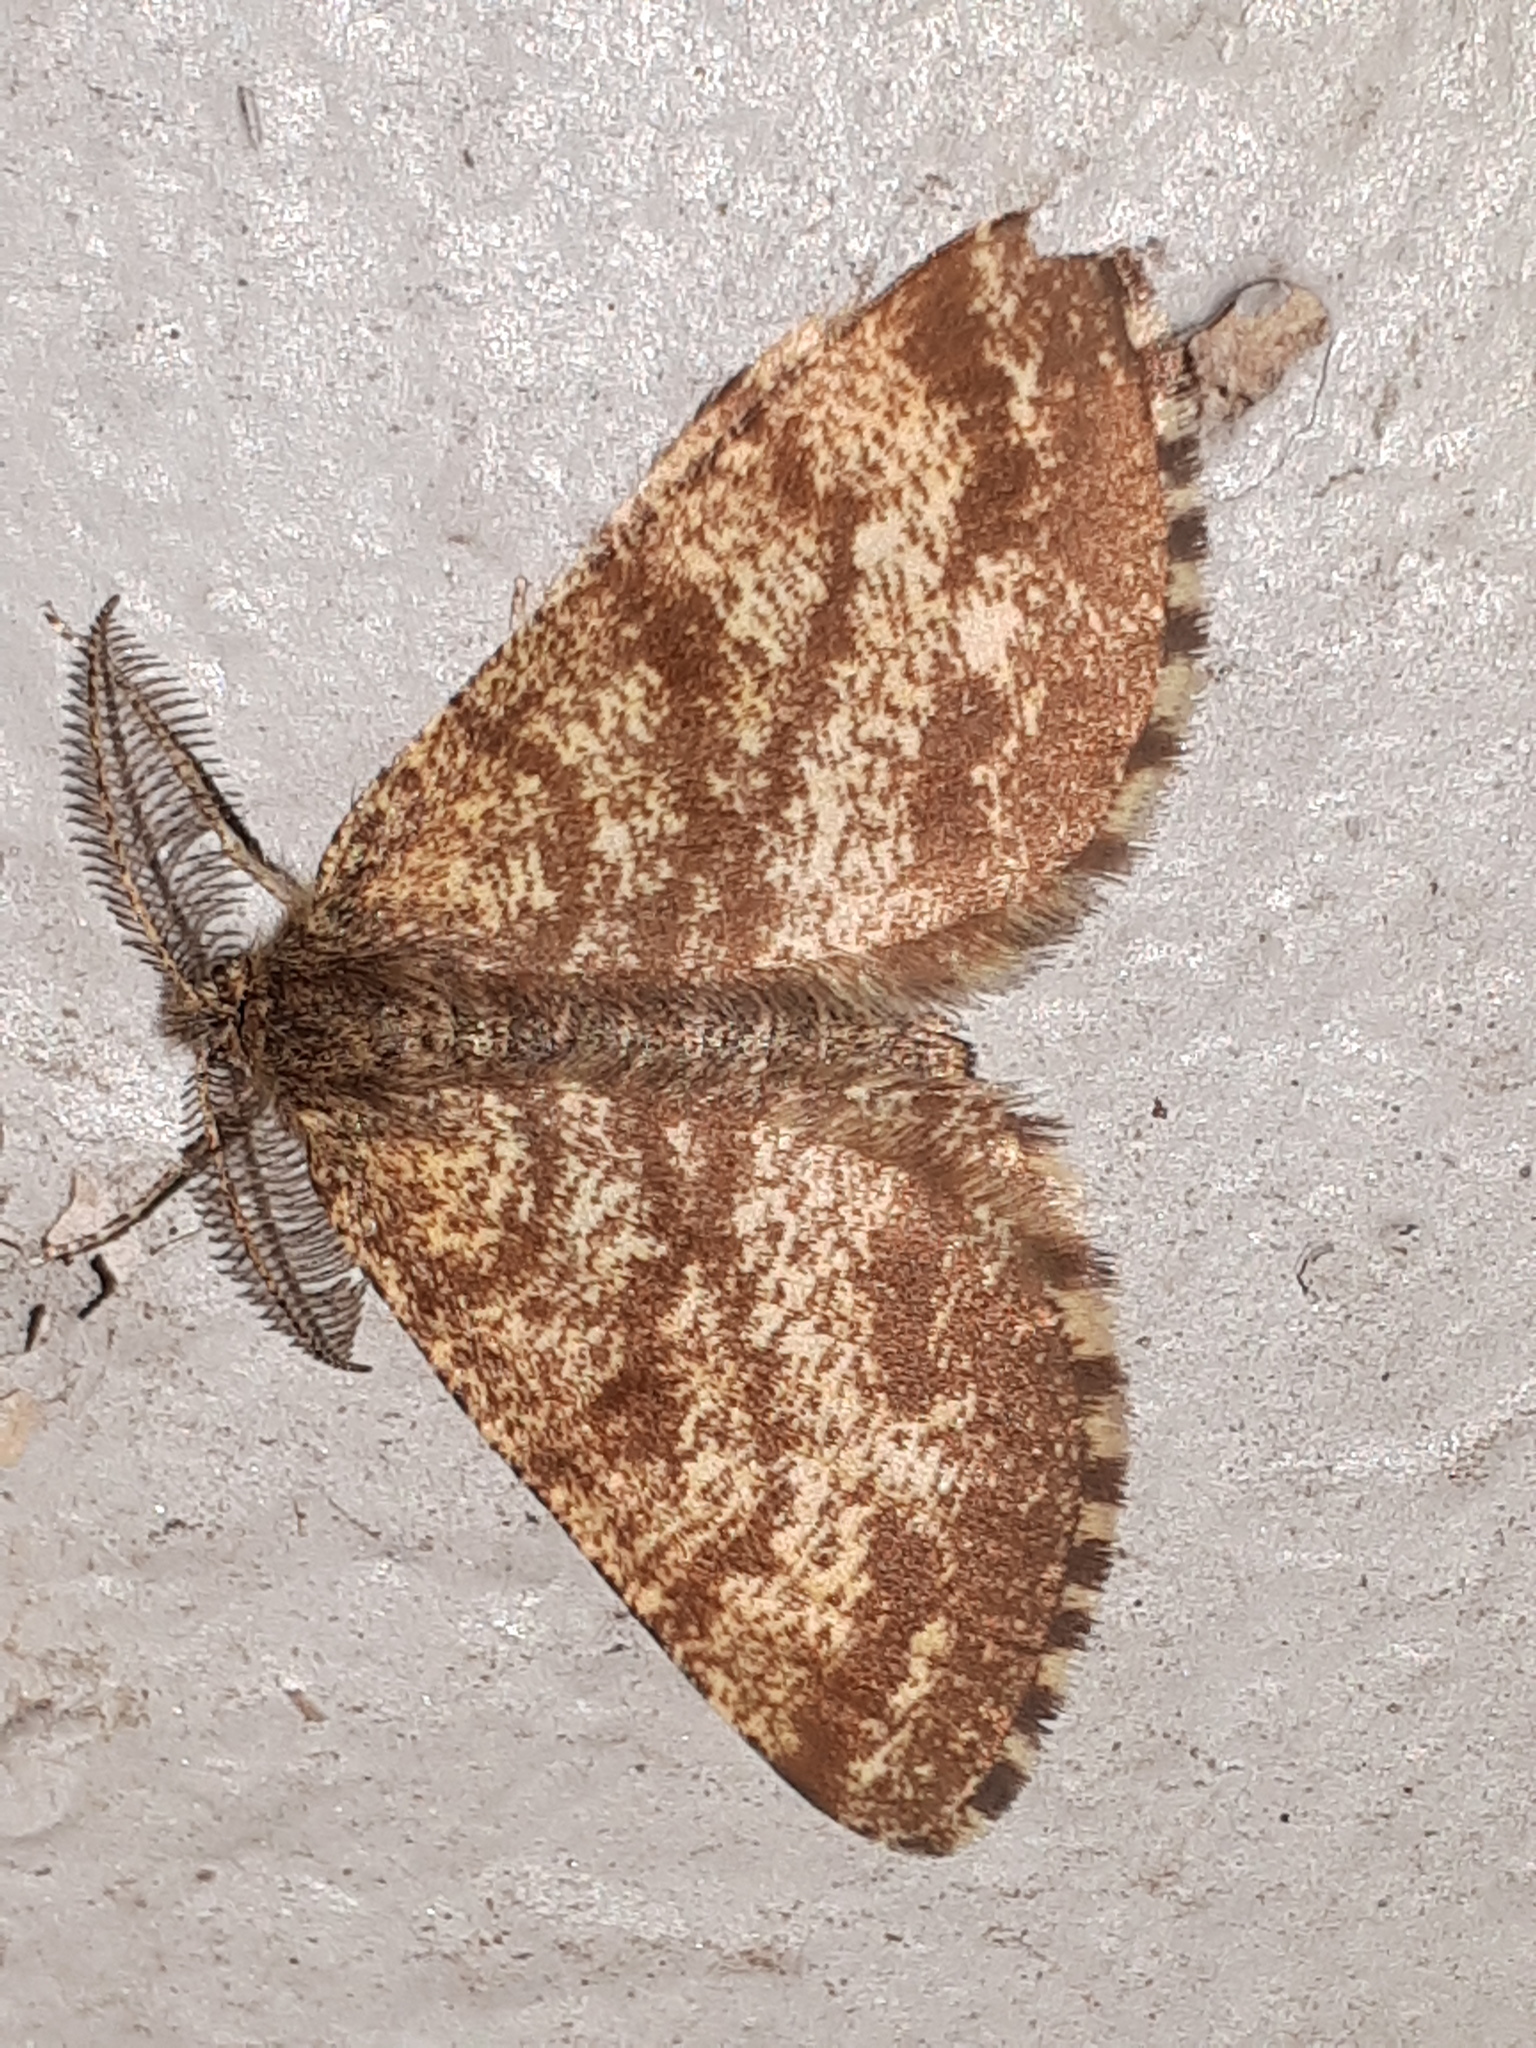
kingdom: Animalia
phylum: Arthropoda
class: Insecta
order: Lepidoptera
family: Geometridae
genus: Ematurga
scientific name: Ematurga atomaria
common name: Common heath
